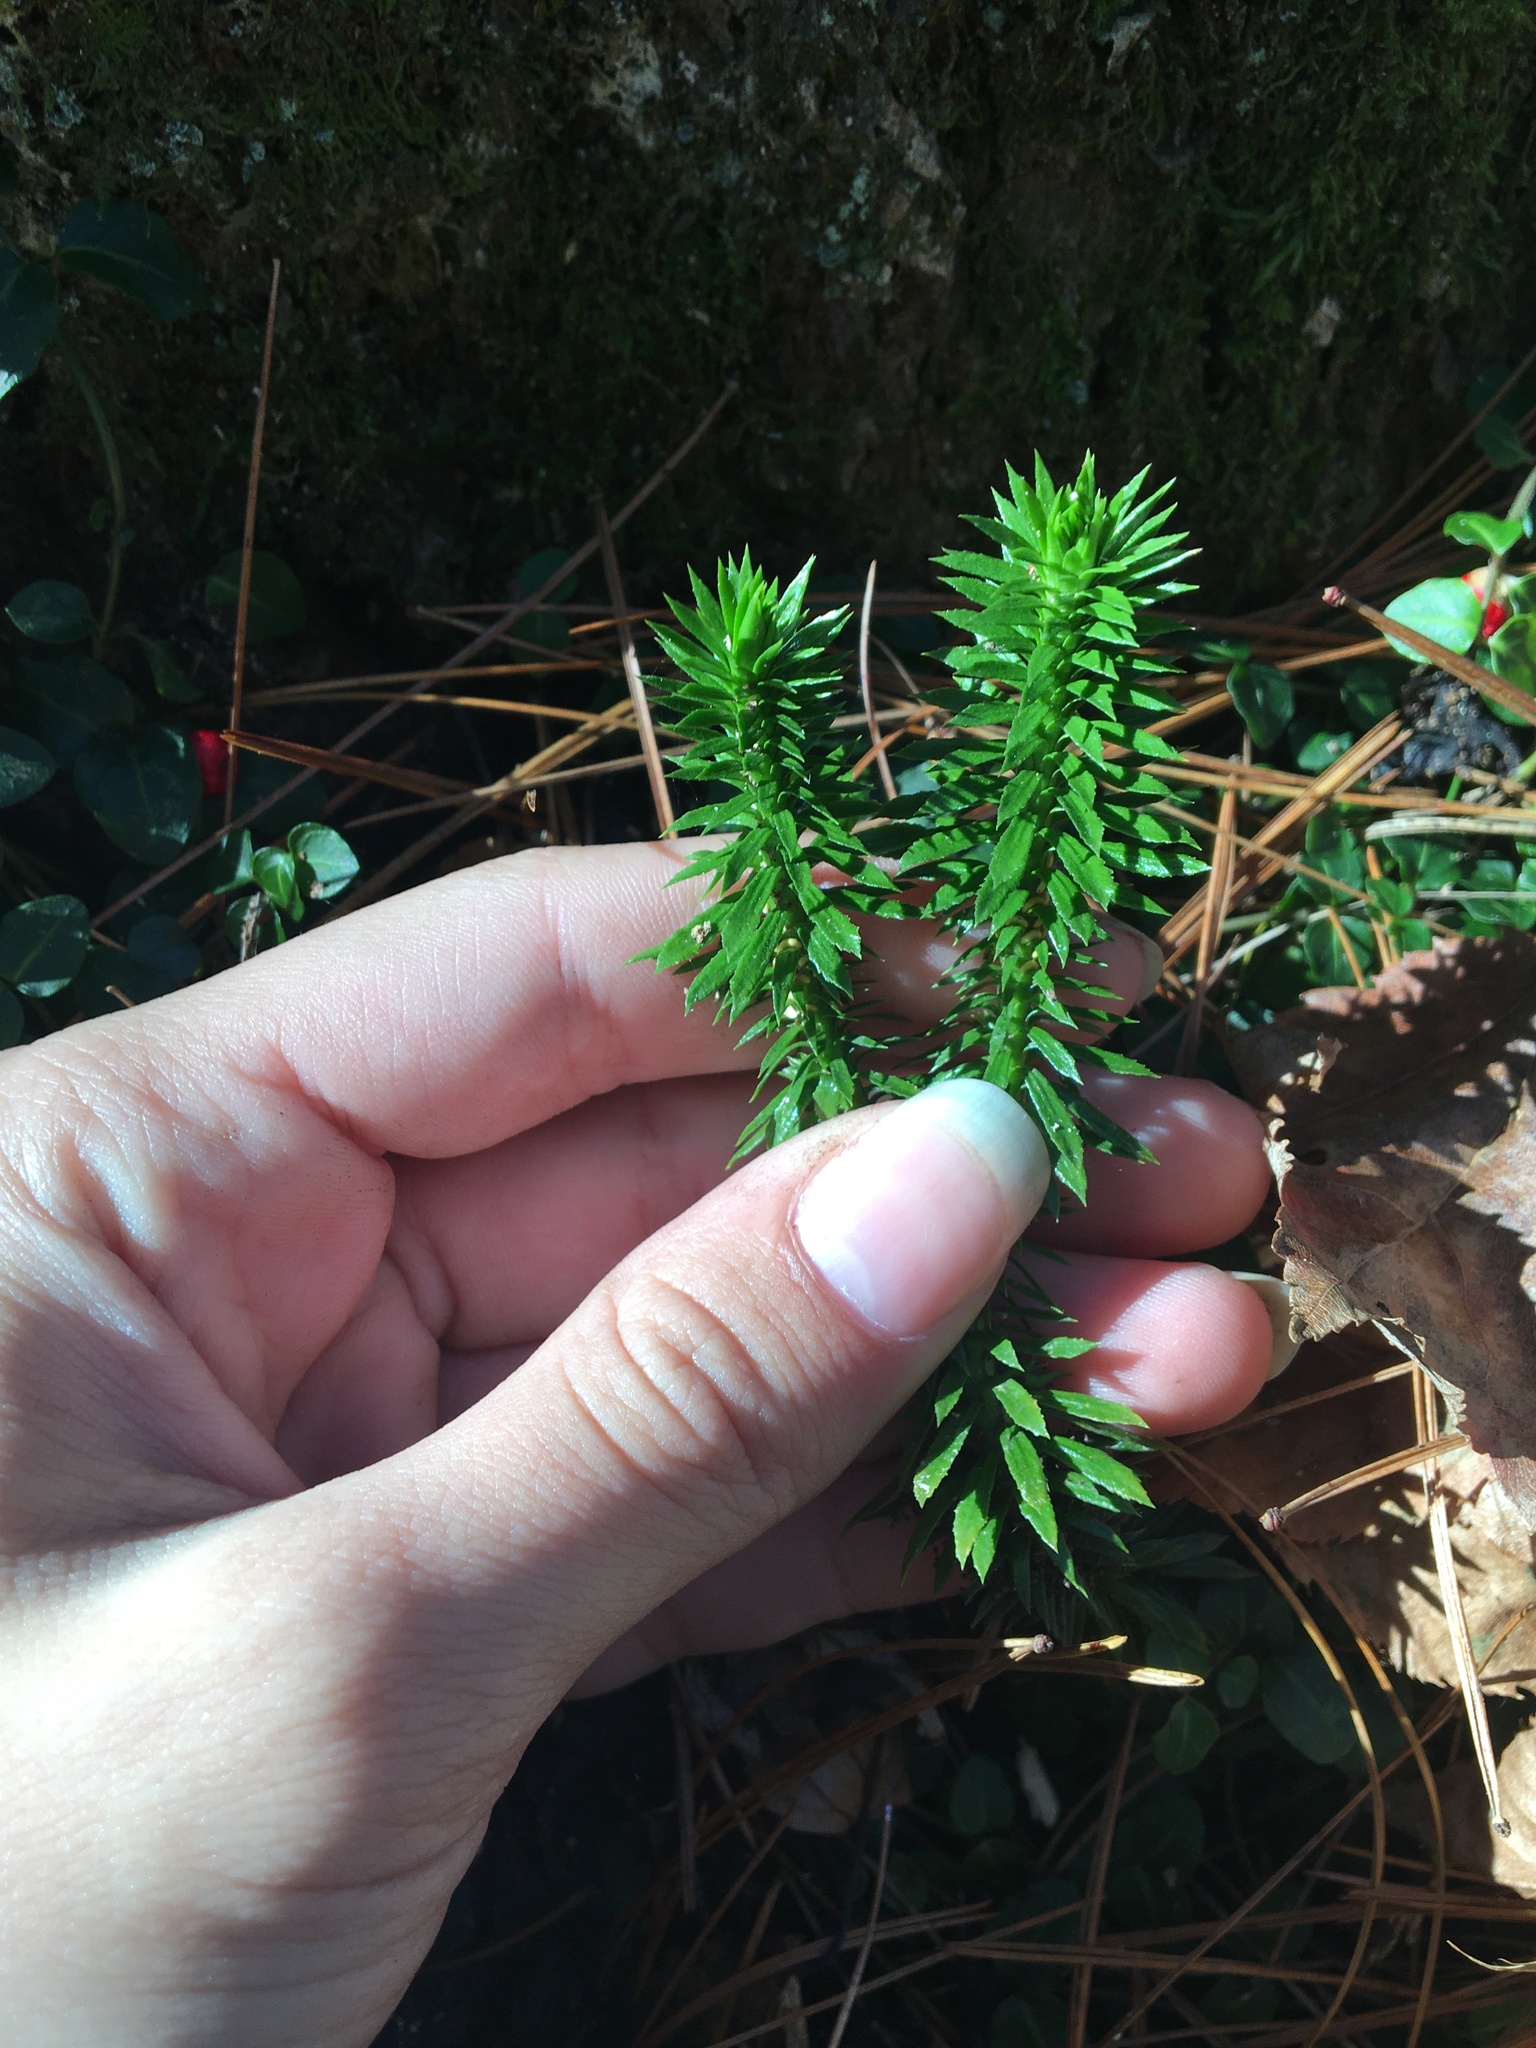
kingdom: Plantae
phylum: Tracheophyta
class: Lycopodiopsida
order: Lycopodiales
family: Lycopodiaceae
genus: Huperzia
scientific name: Huperzia lucidula
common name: Shining clubmoss
